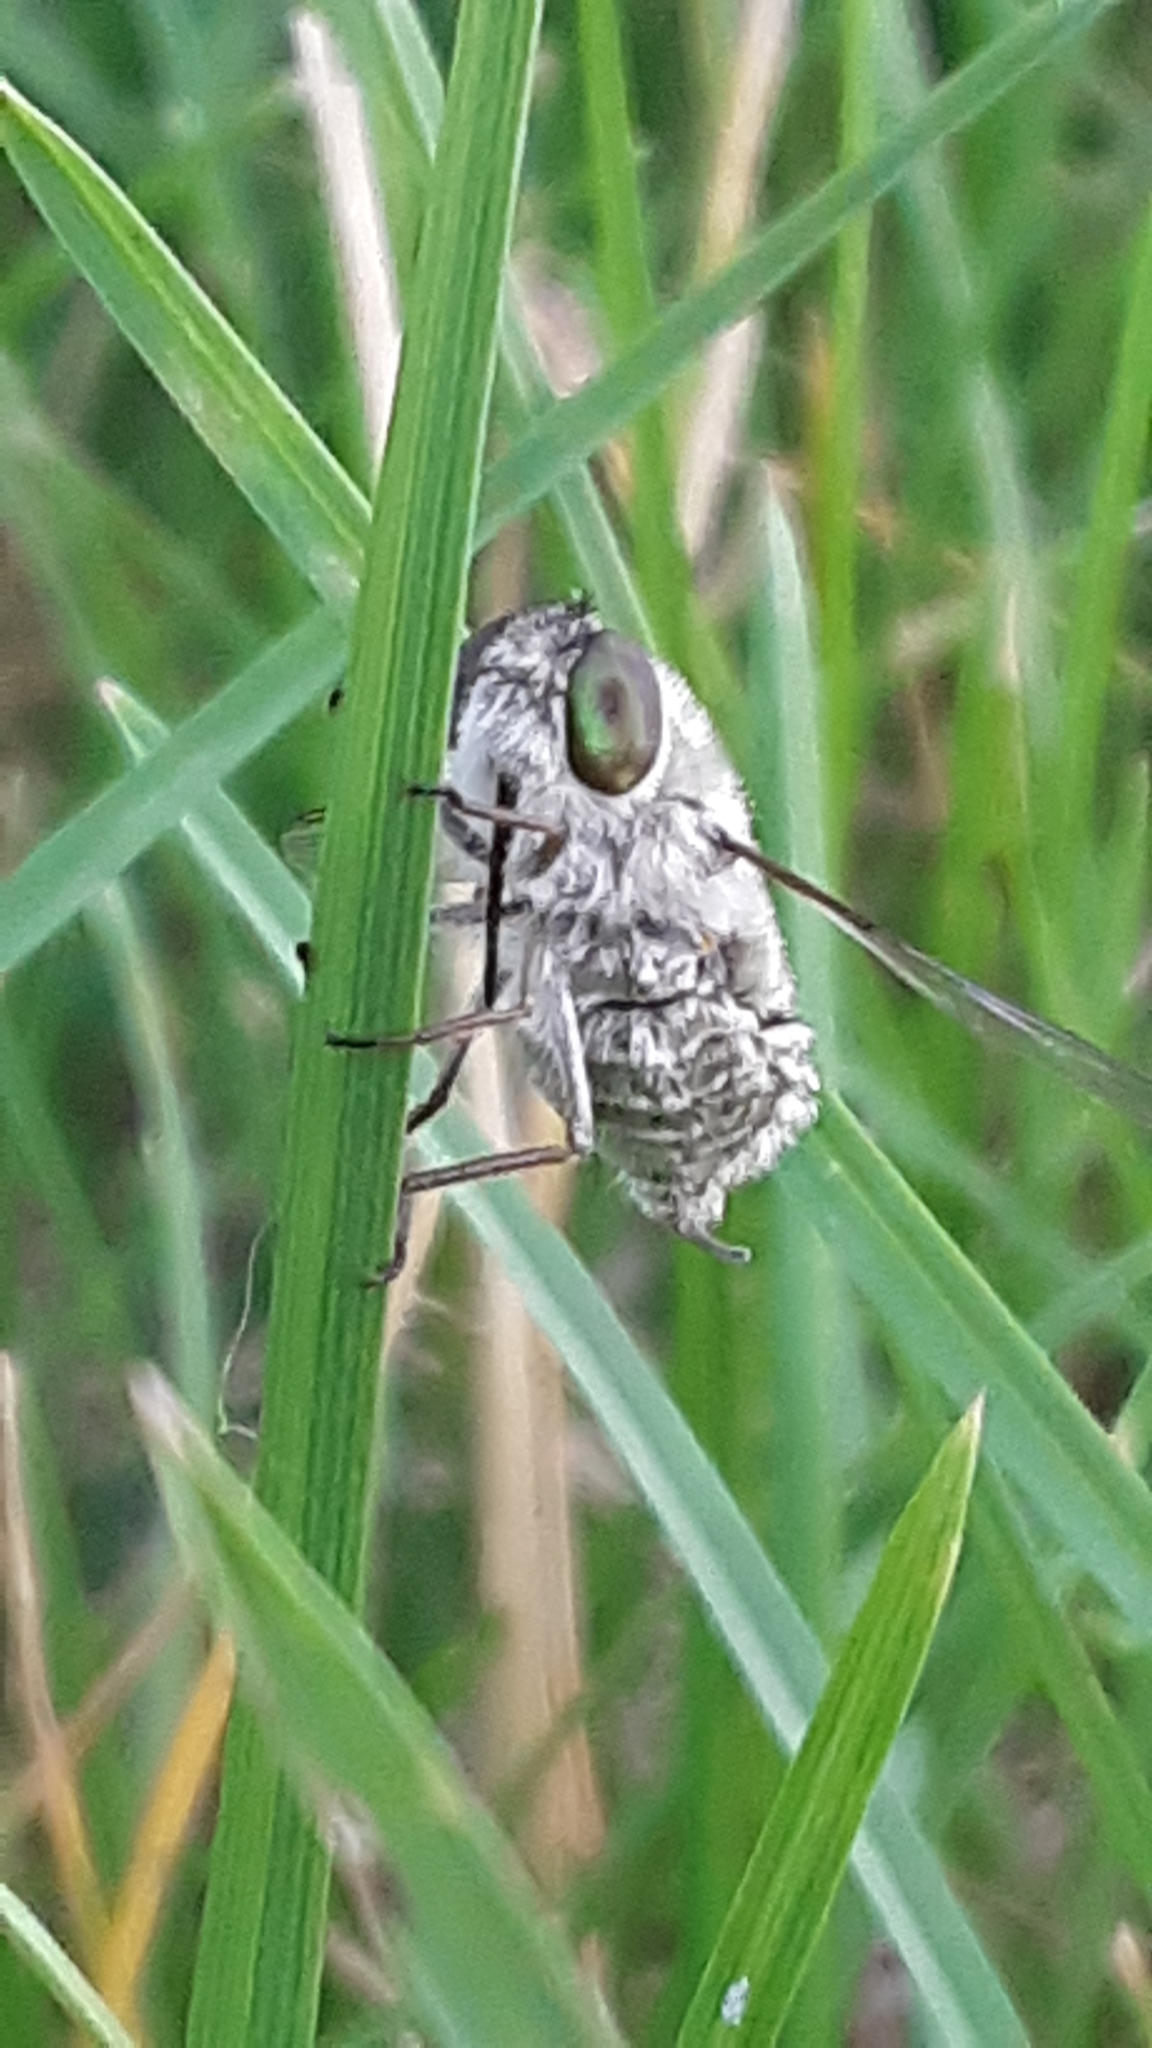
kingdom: Animalia
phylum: Arthropoda
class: Insecta
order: Diptera
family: Nemestrinidae
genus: Neorhynchocephalus
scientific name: Neorhynchocephalus sackenii
